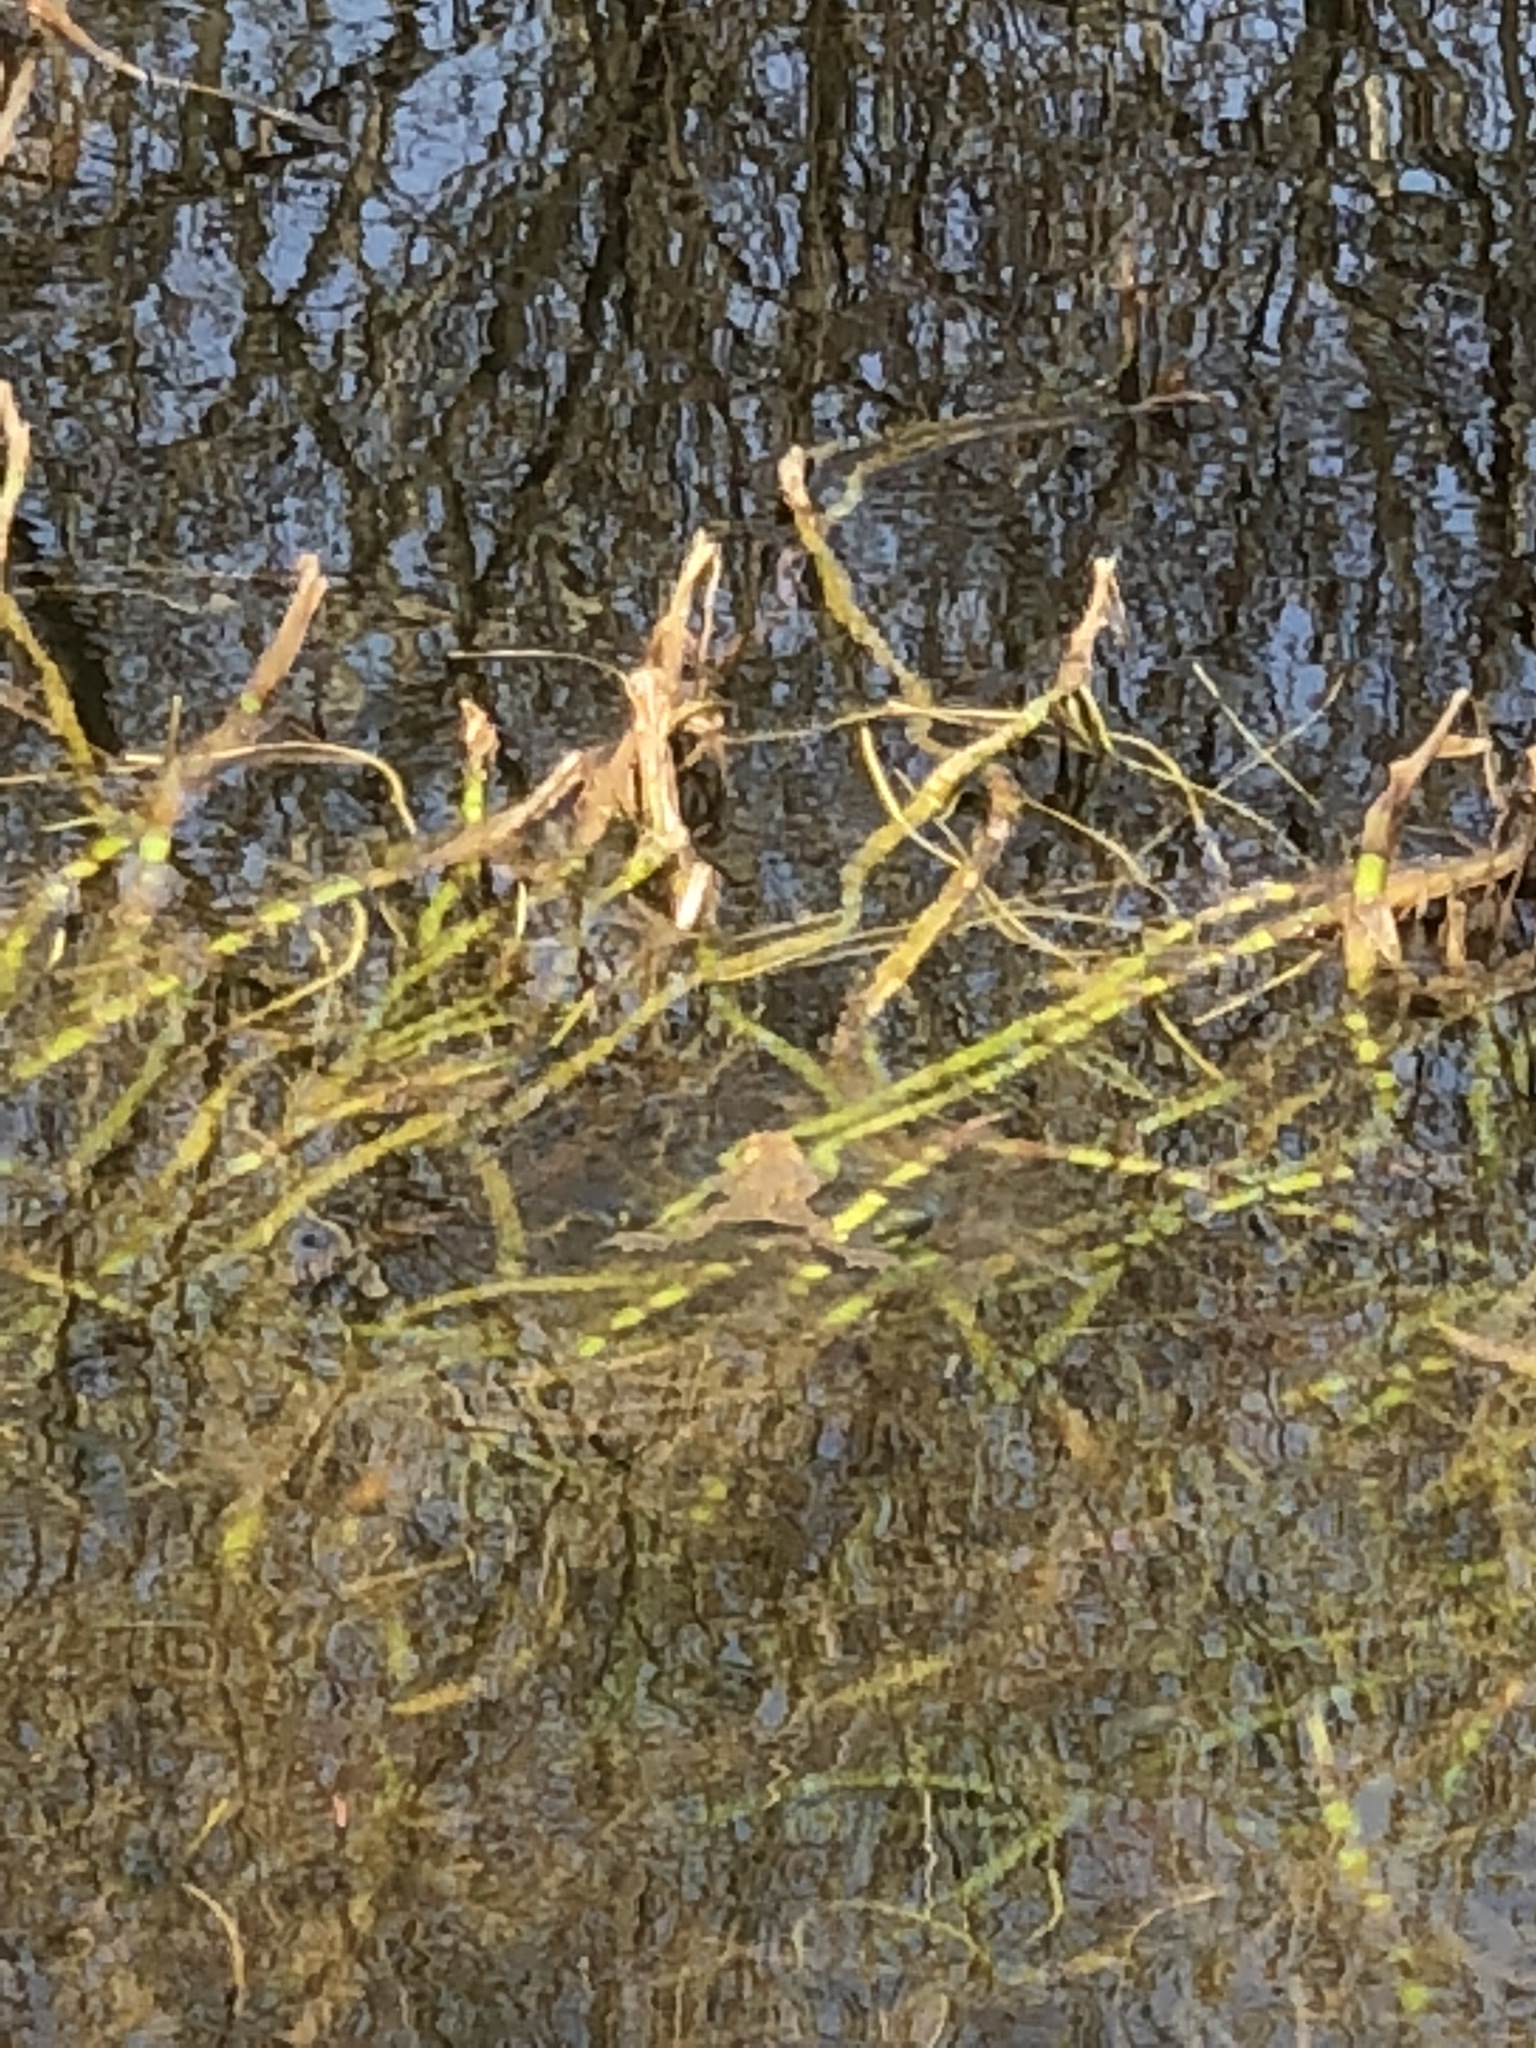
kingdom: Animalia
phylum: Chordata
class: Amphibia
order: Anura
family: Bufonidae
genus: Bufo
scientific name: Bufo bufo
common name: Common toad
